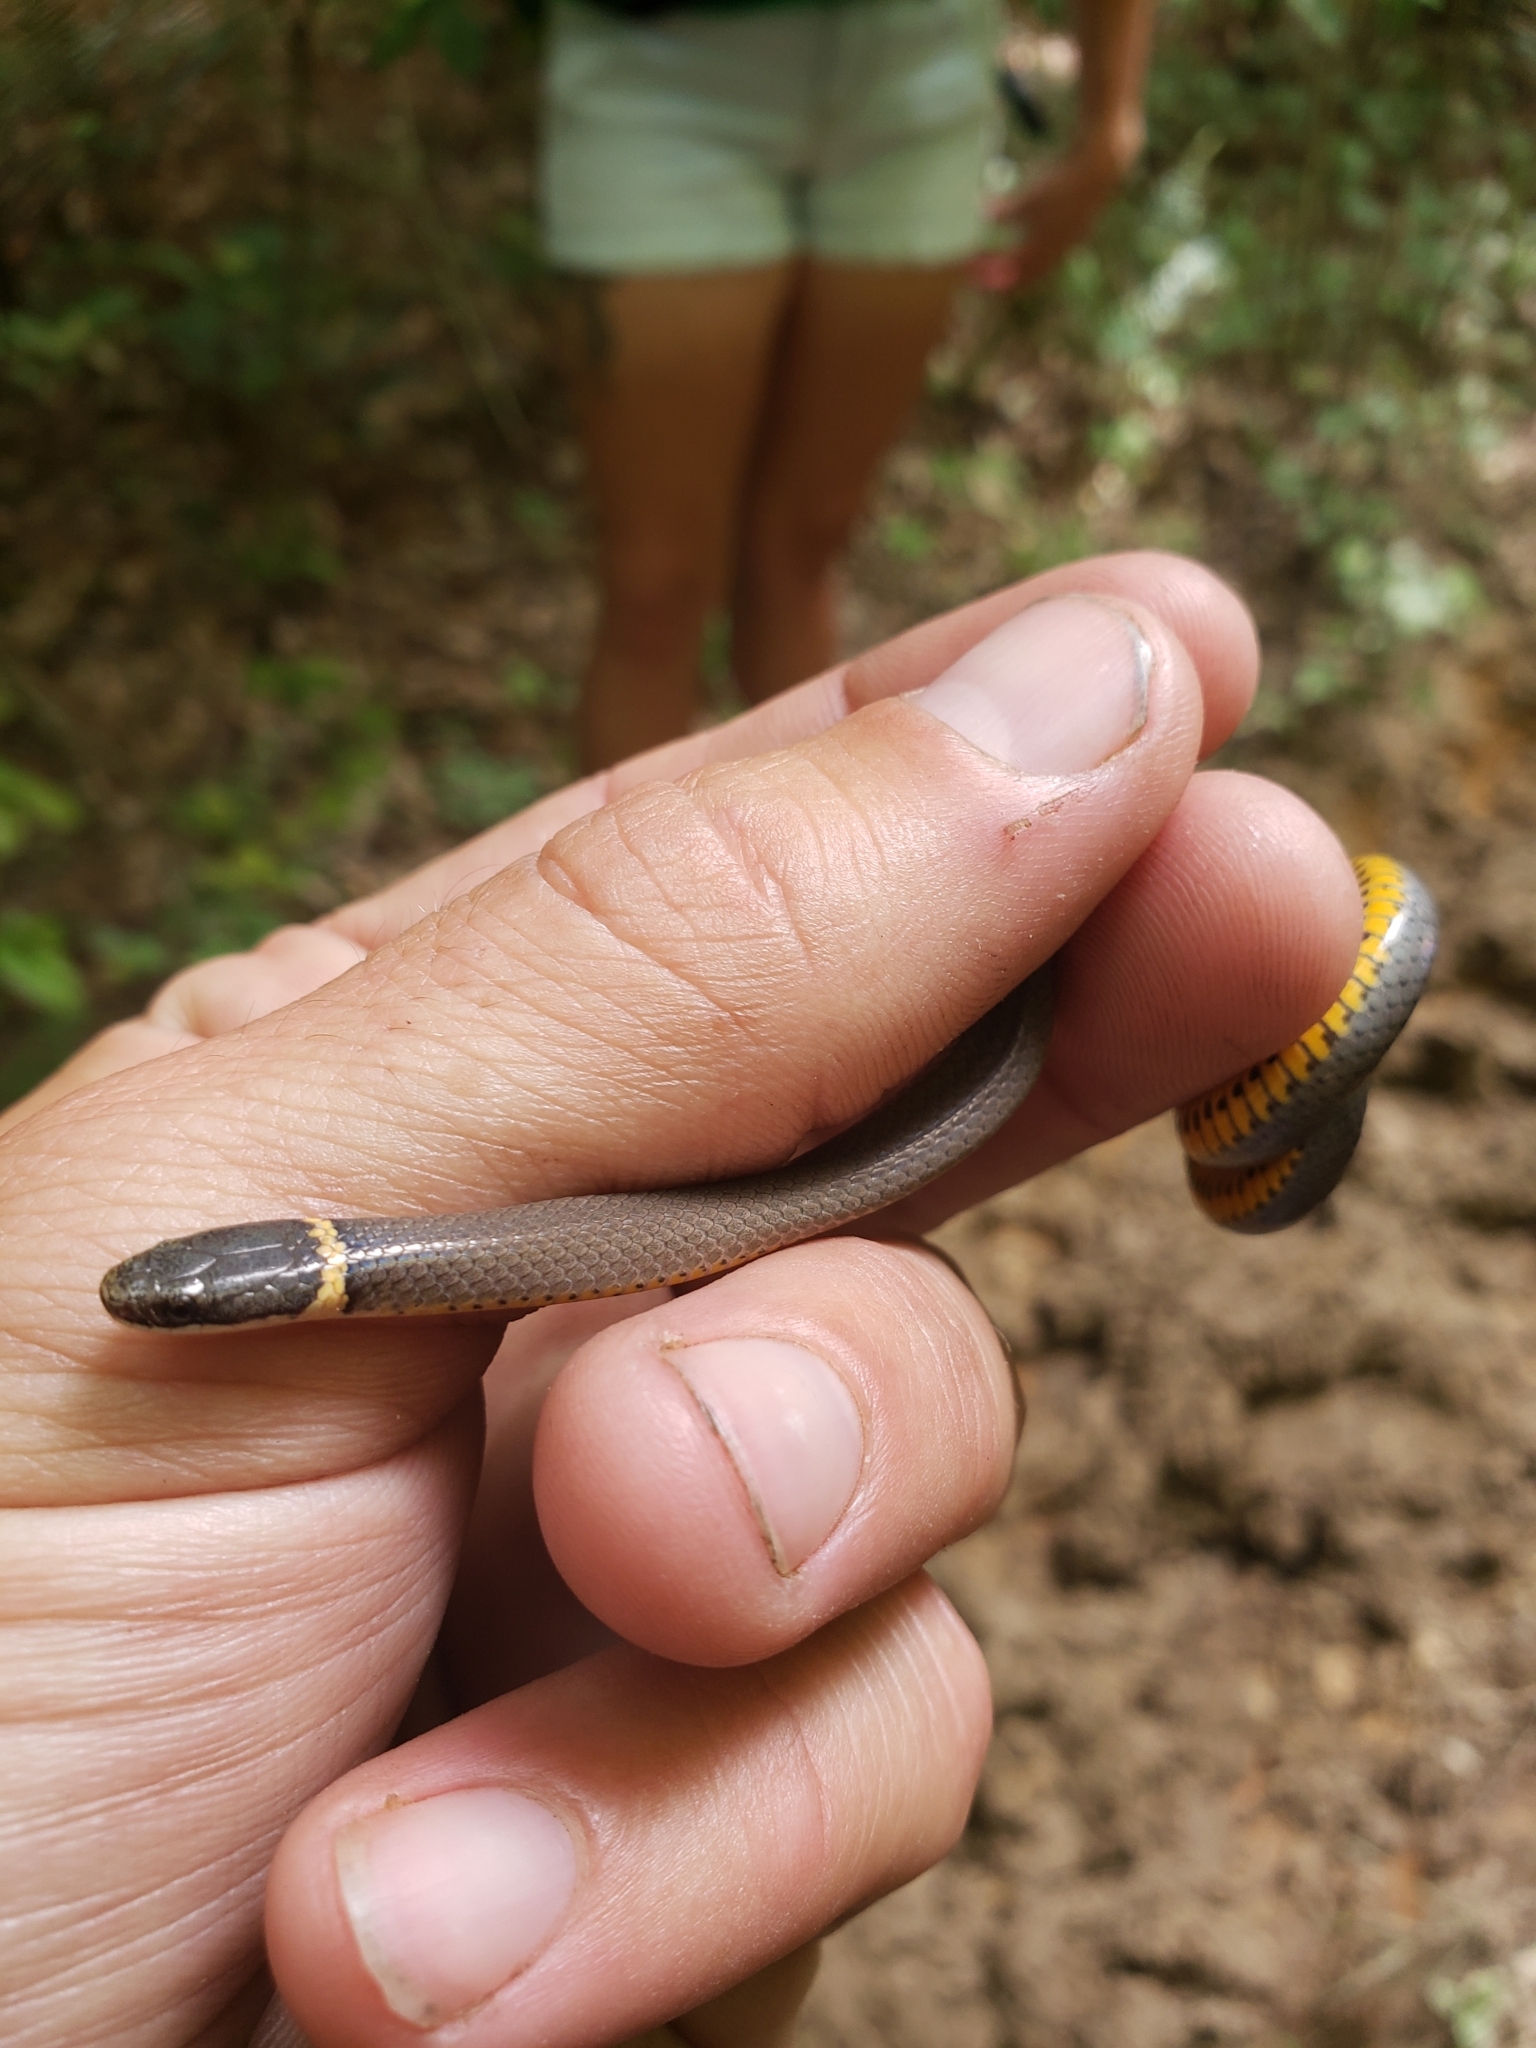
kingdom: Animalia
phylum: Chordata
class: Squamata
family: Colubridae
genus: Diadophis
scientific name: Diadophis punctatus
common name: Ringneck snake
